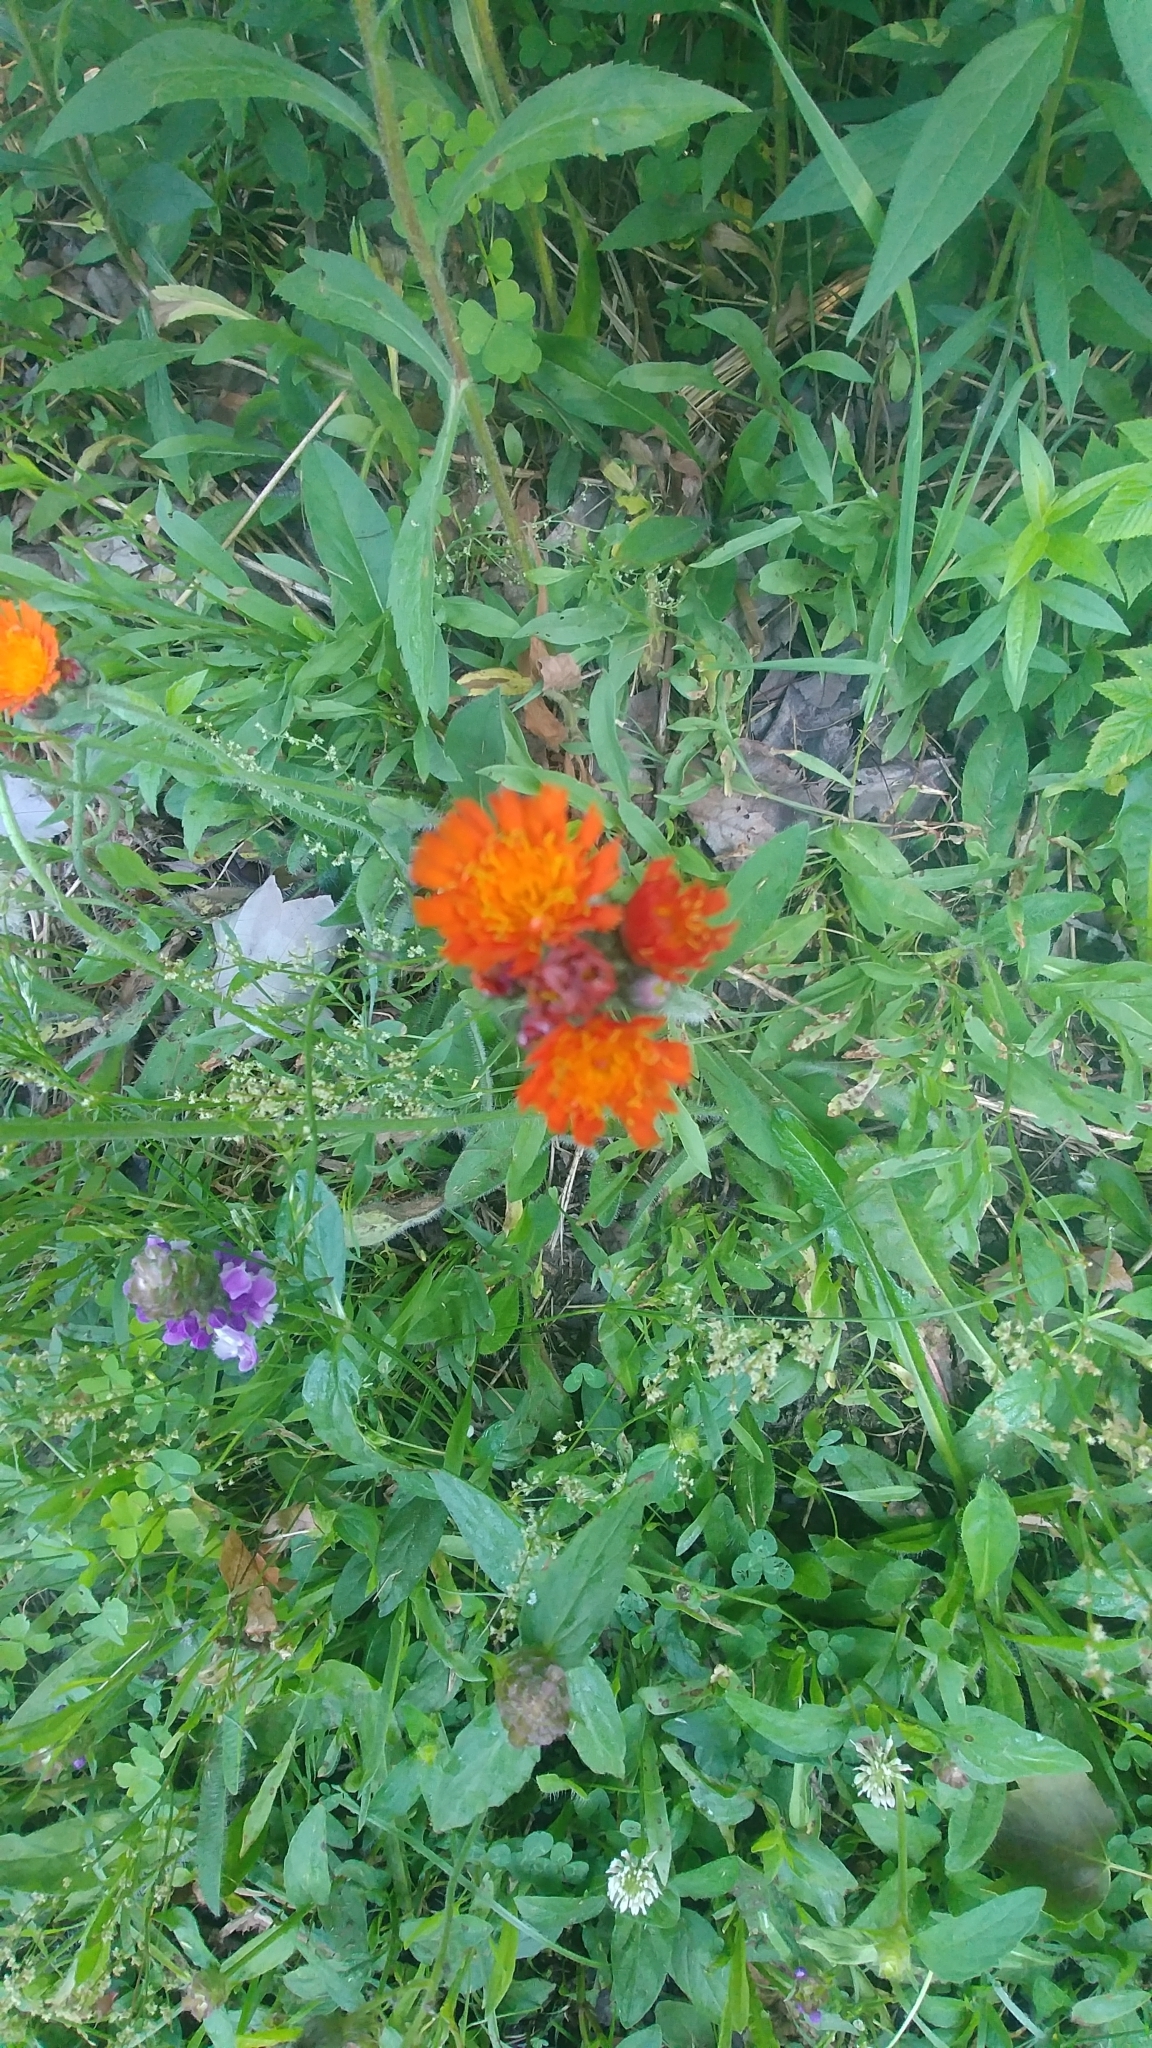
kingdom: Plantae
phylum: Tracheophyta
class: Magnoliopsida
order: Asterales
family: Asteraceae
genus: Pilosella
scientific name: Pilosella aurantiaca
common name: Fox-and-cubs
